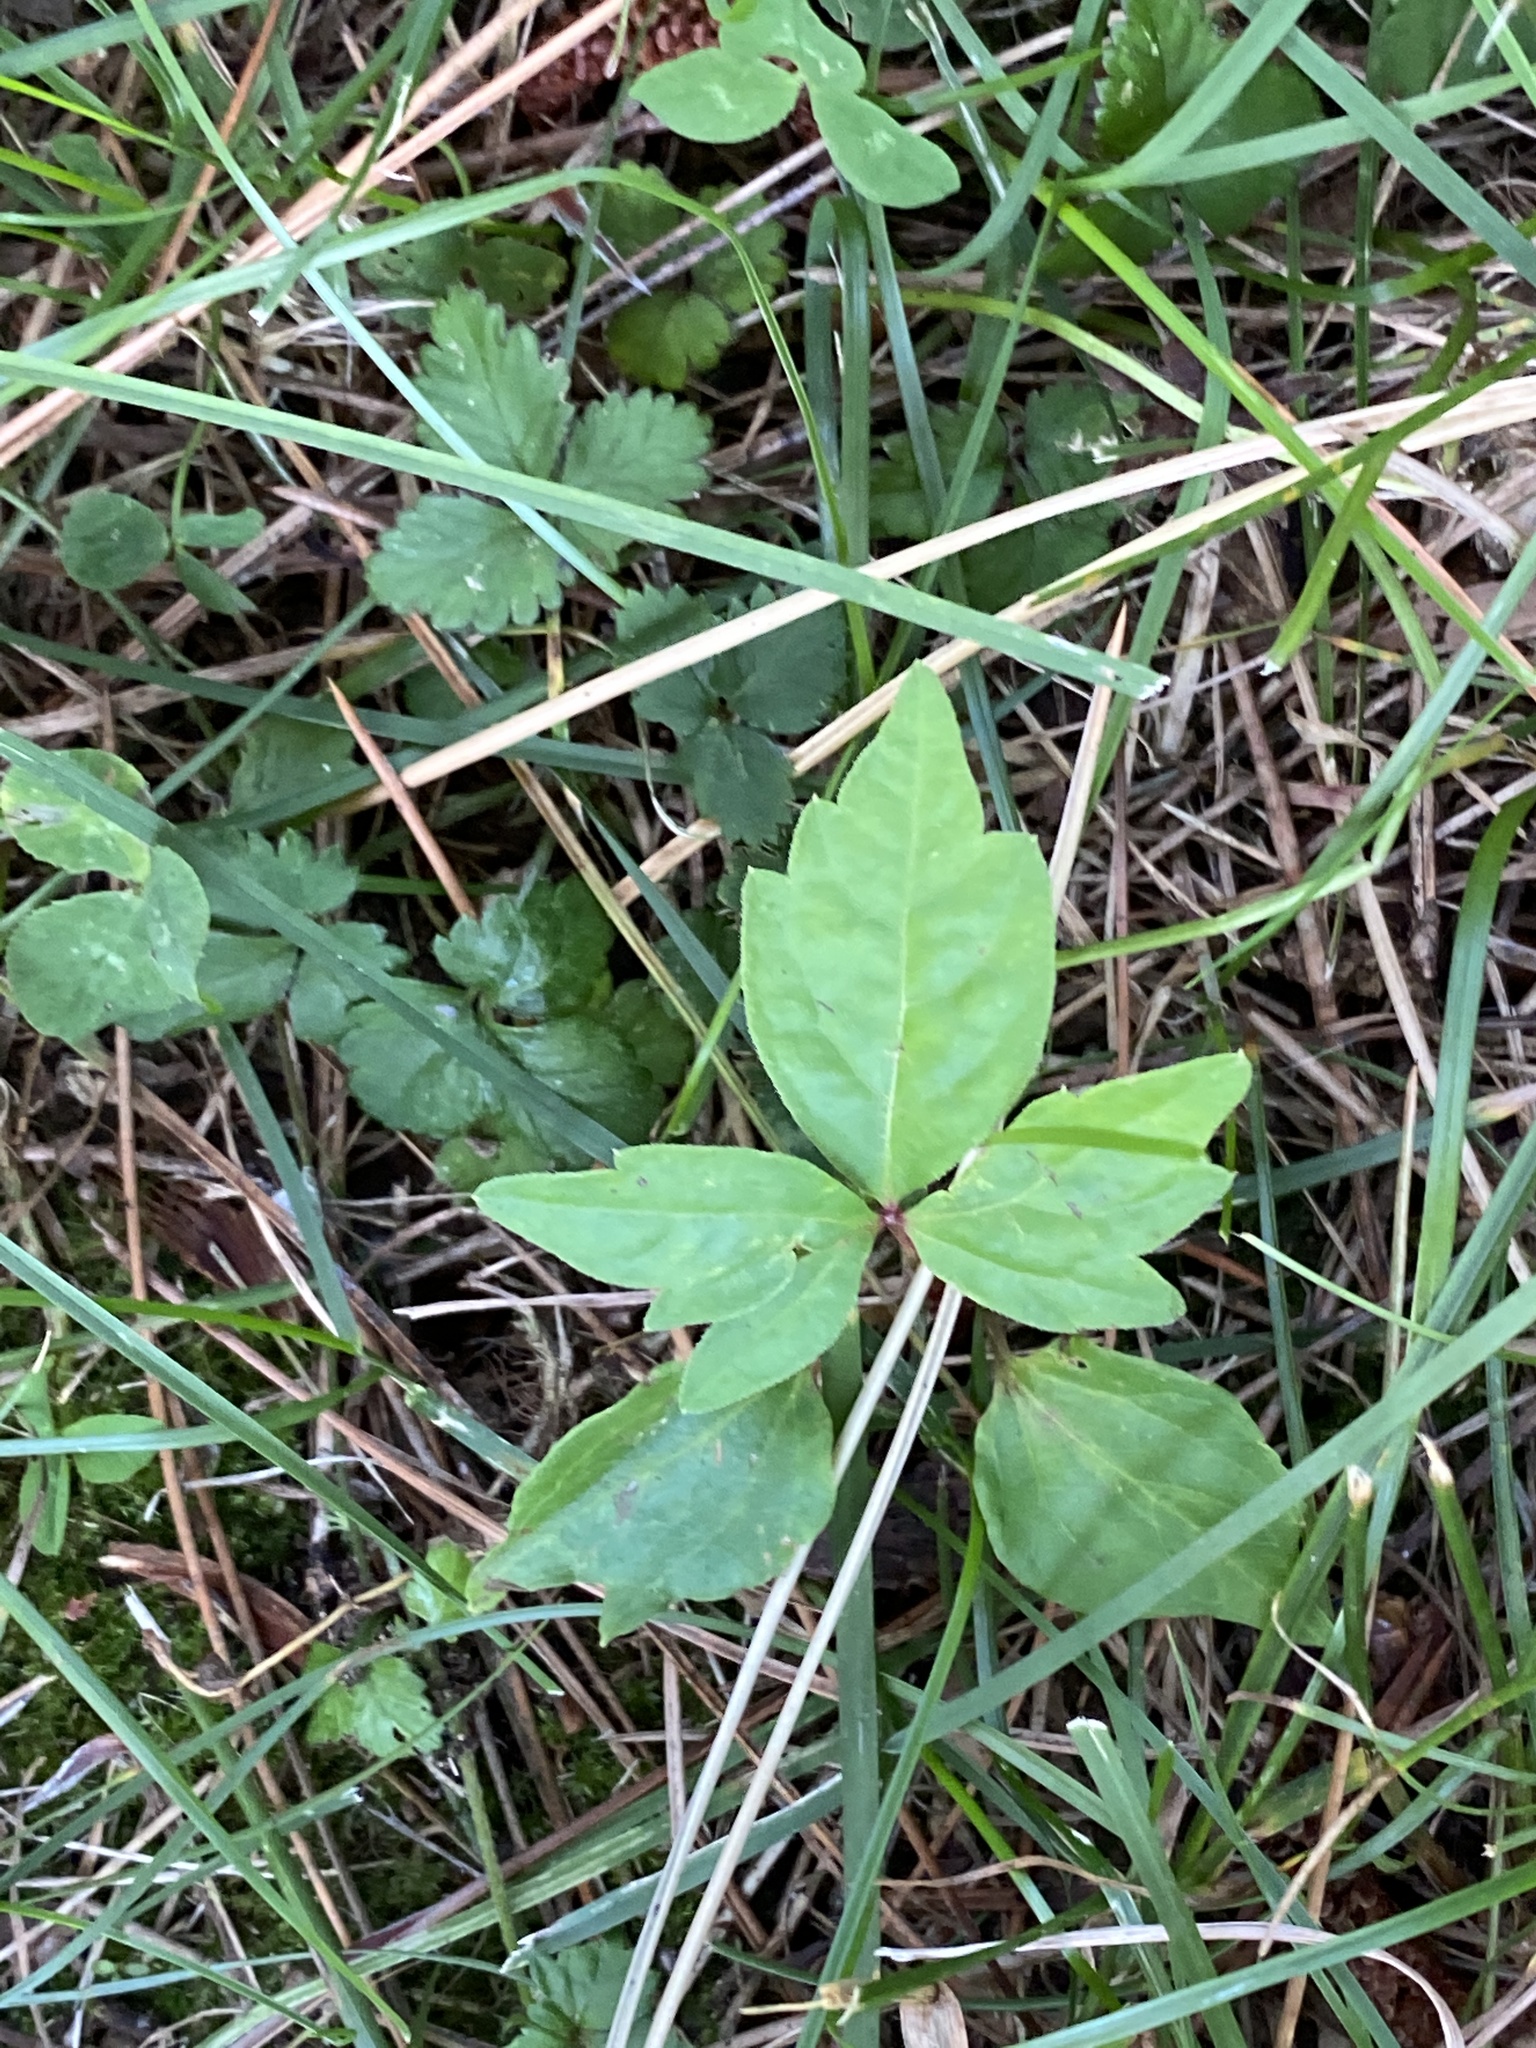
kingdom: Plantae
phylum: Tracheophyta
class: Magnoliopsida
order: Sapindales
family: Anacardiaceae
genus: Toxicodendron
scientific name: Toxicodendron radicans
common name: Poison ivy
